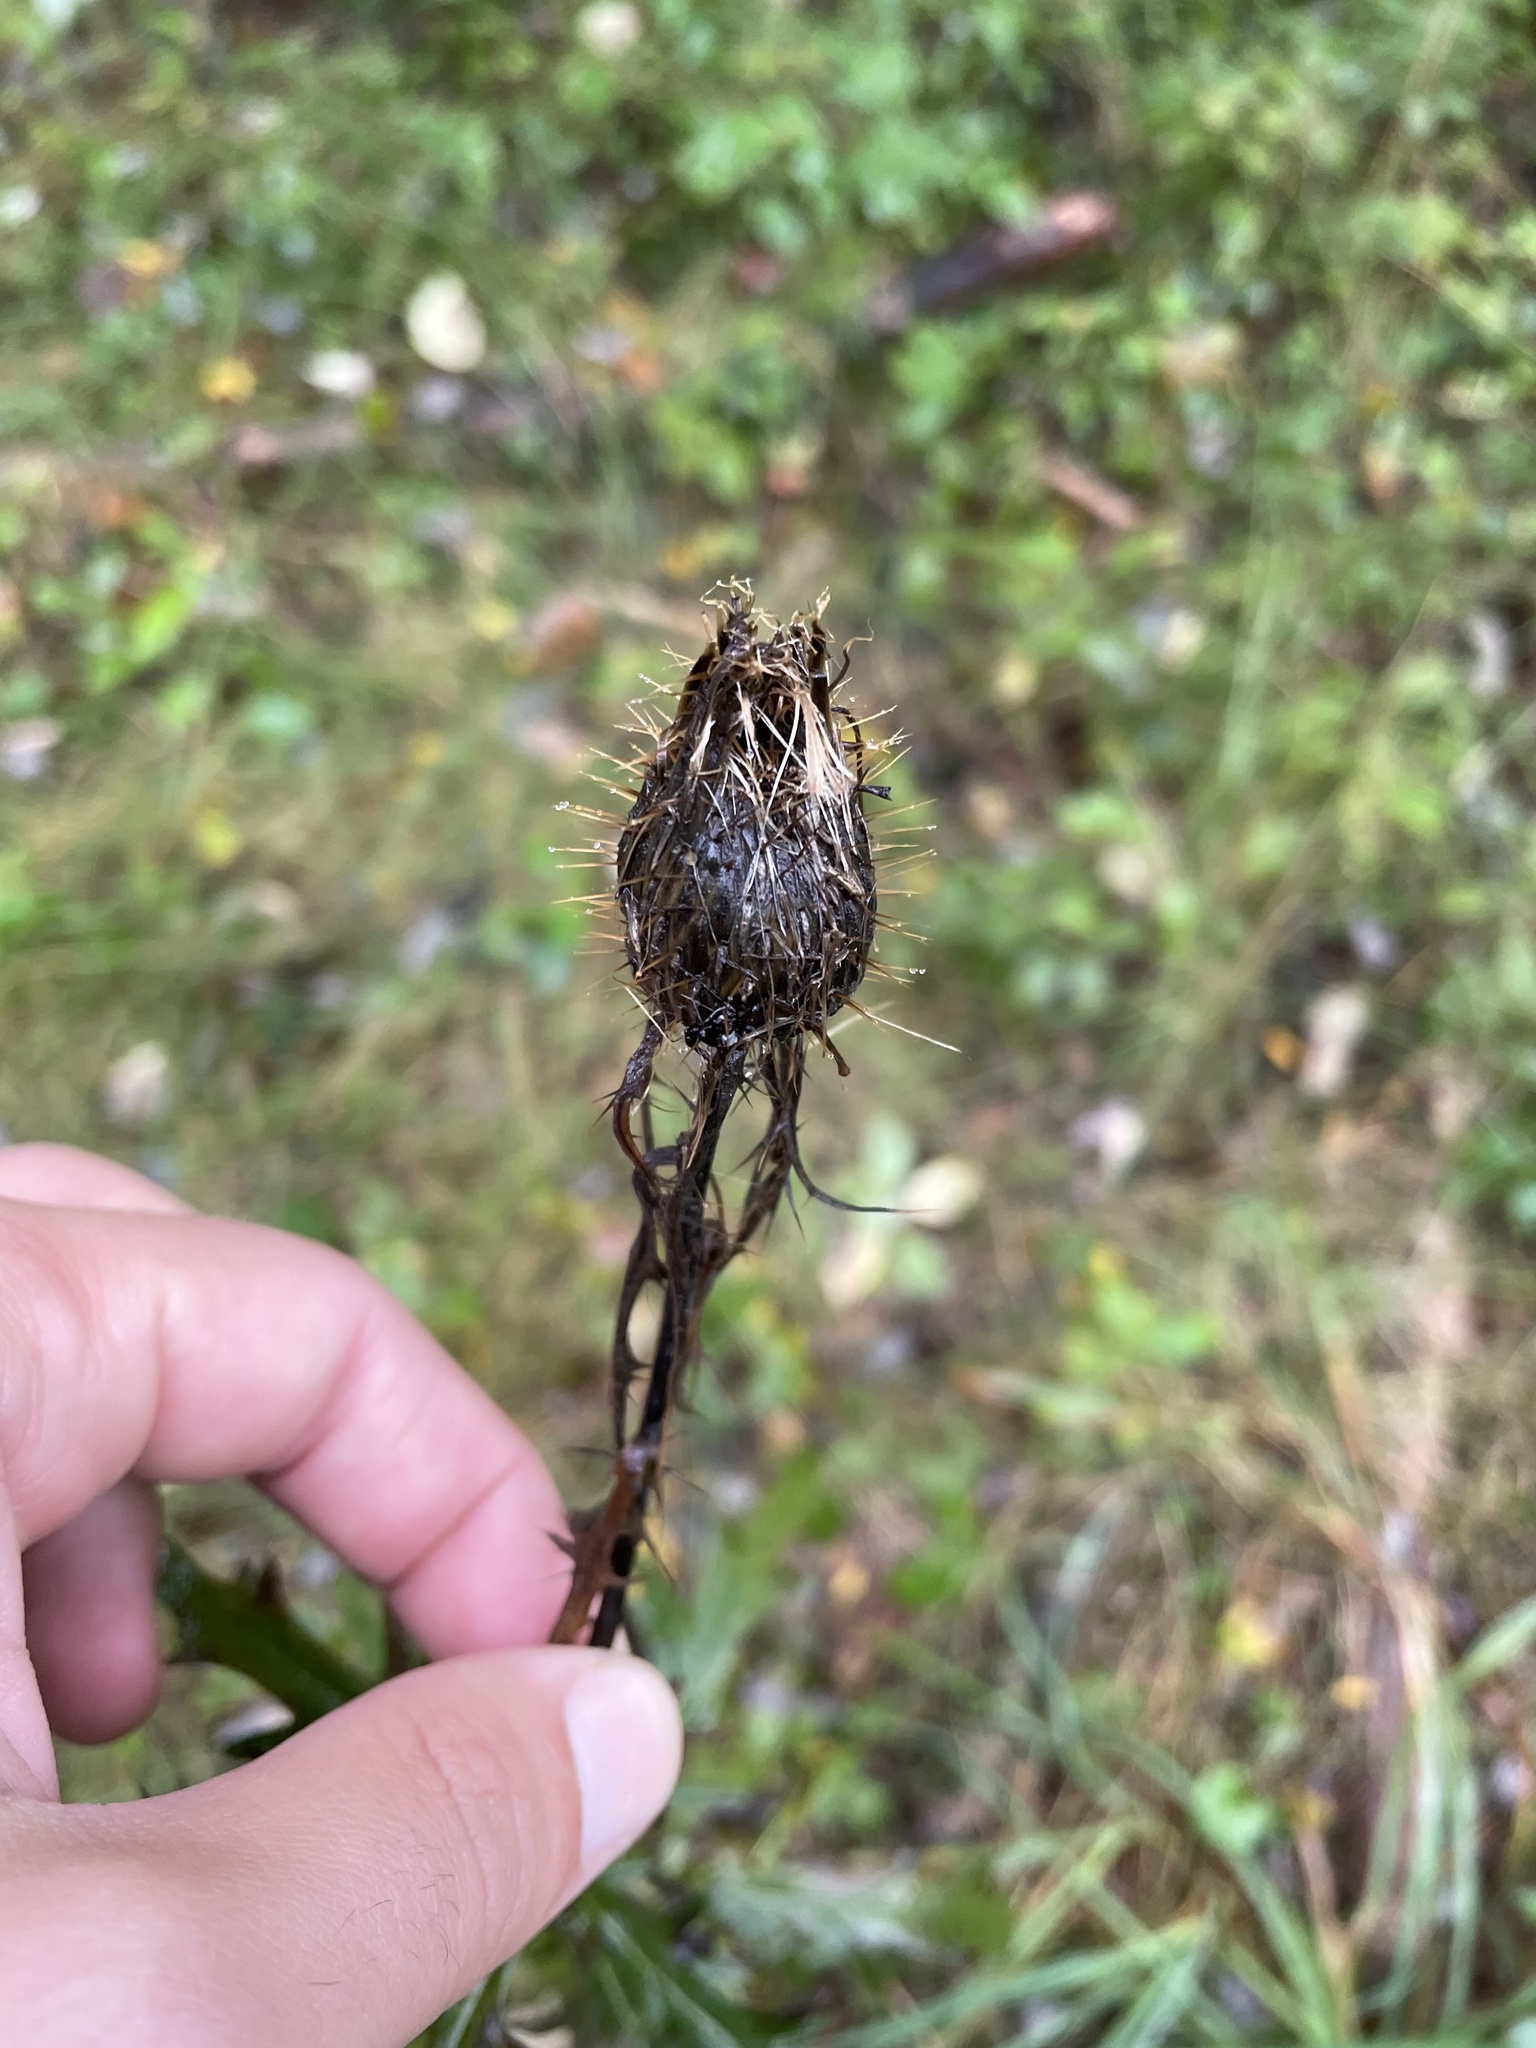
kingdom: Plantae
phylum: Tracheophyta
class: Magnoliopsida
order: Asterales
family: Asteraceae
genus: Cirsium
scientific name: Cirsium discolor
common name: Field thistle
